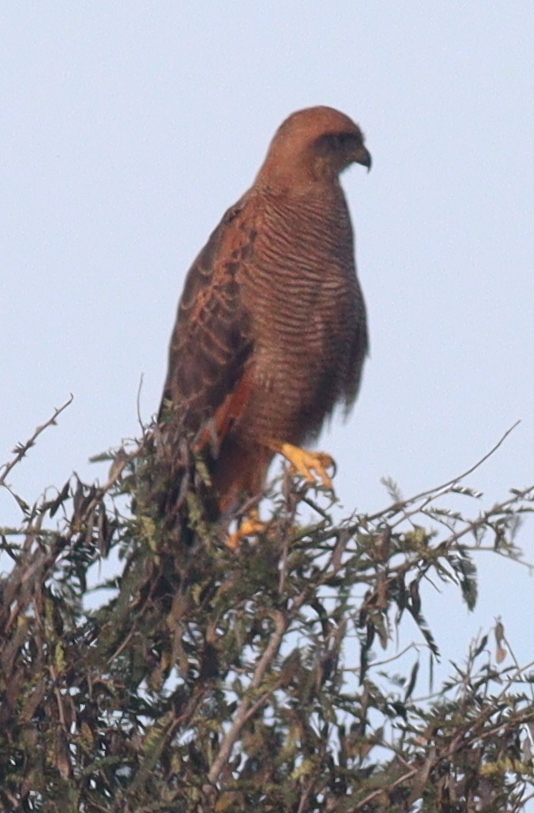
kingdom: Animalia
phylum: Chordata
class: Aves
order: Accipitriformes
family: Accipitridae
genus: Buteogallus
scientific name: Buteogallus meridionalis
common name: Savanna hawk
